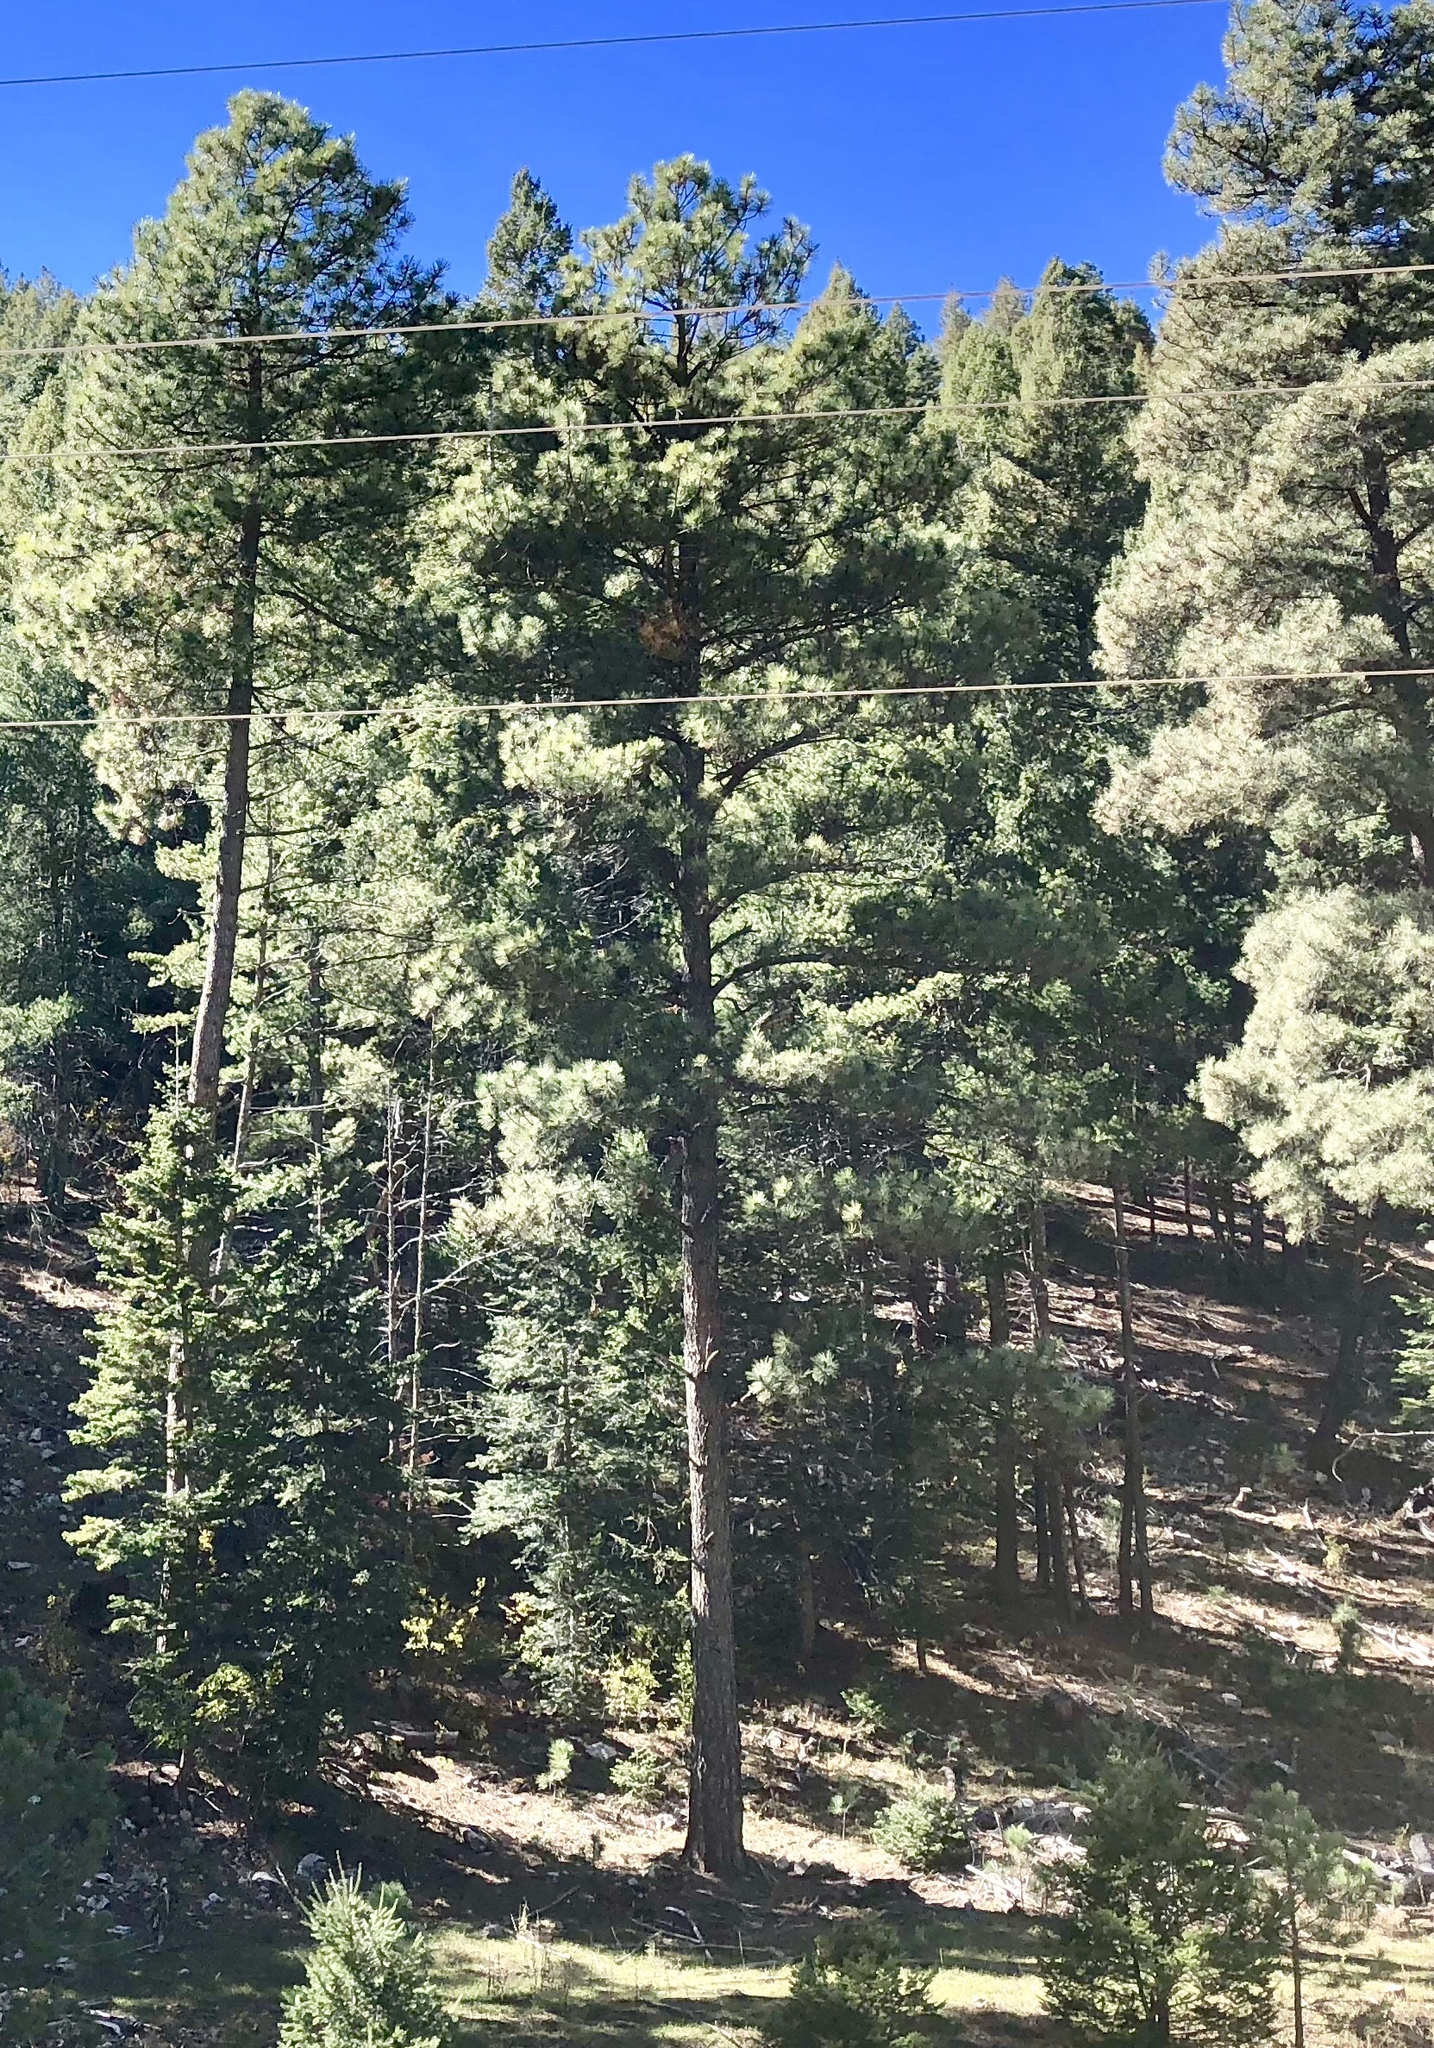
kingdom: Plantae
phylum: Tracheophyta
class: Pinopsida
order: Pinales
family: Pinaceae
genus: Pinus
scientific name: Pinus ponderosa
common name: Western yellow-pine
